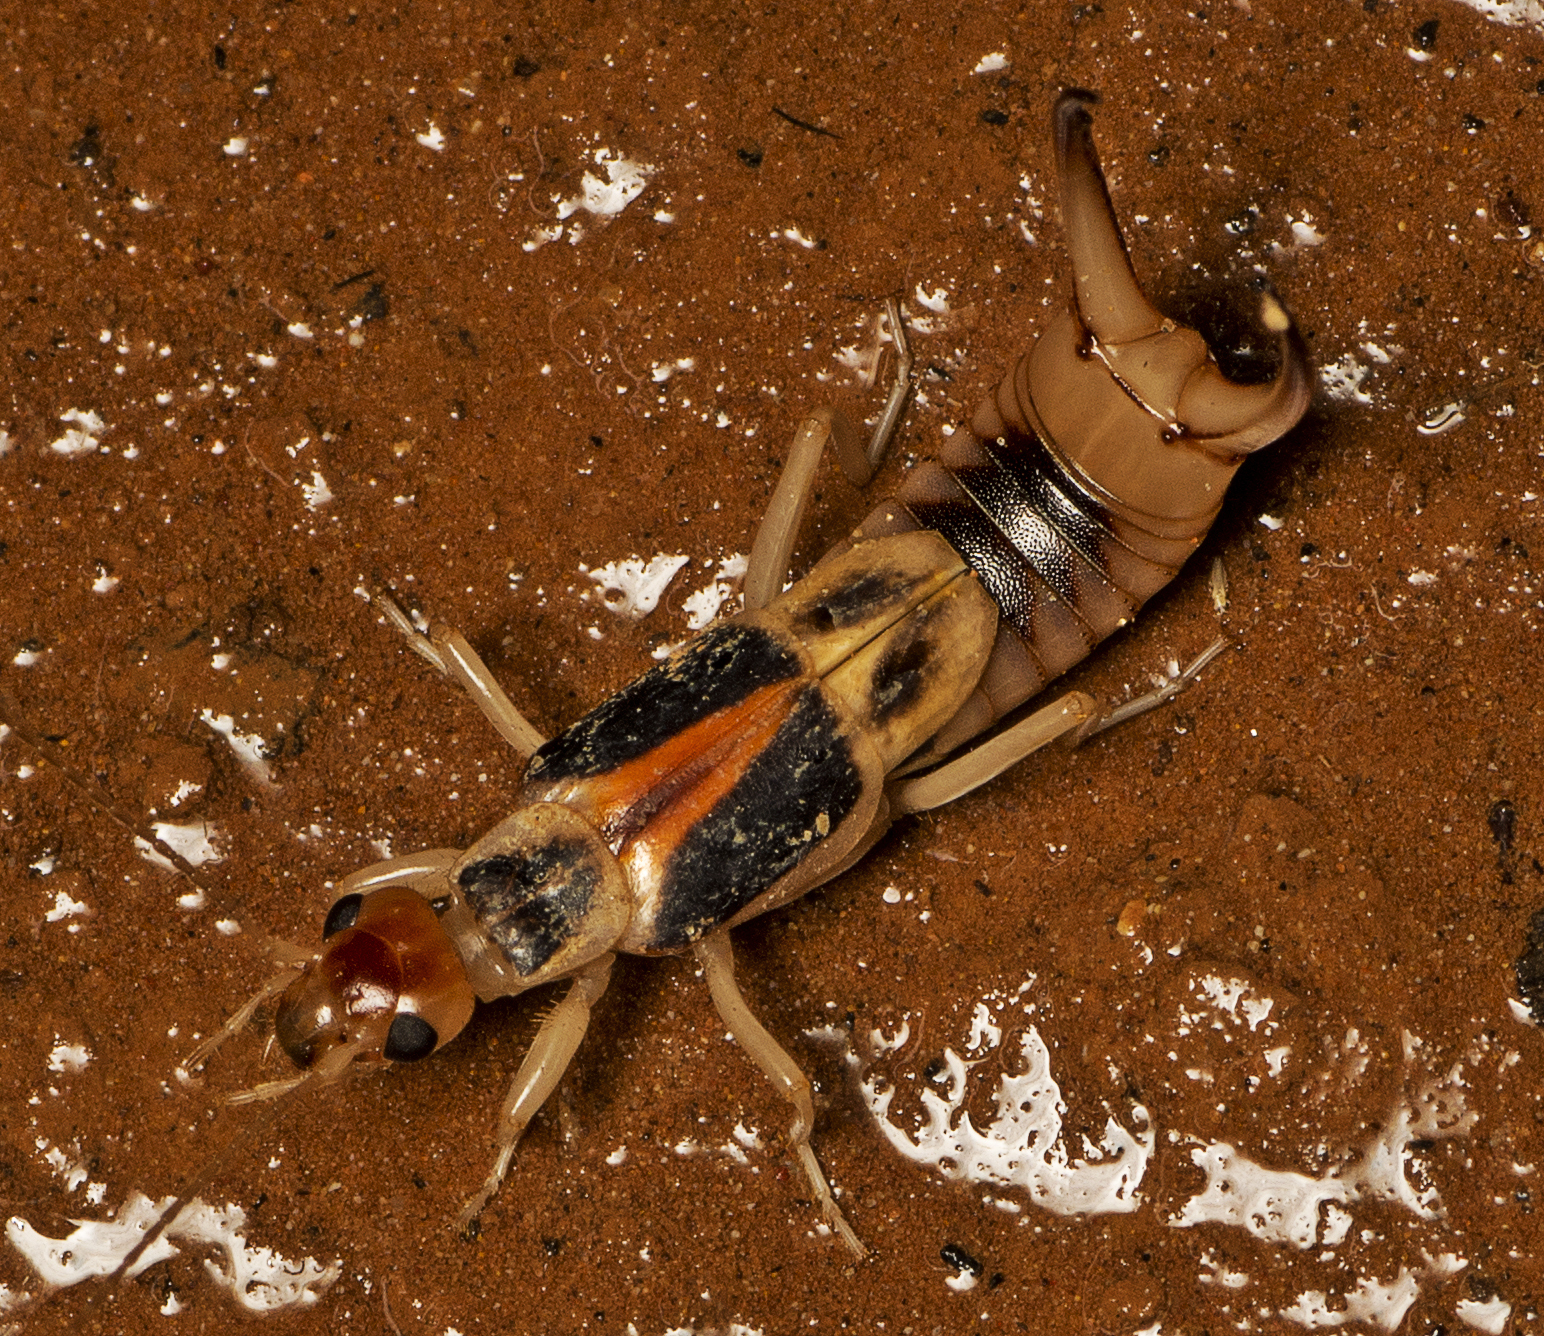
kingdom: Animalia
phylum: Arthropoda
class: Insecta
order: Dermaptera
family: Labiduridae
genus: Labidura
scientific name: Labidura riparia
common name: Striped earwig
